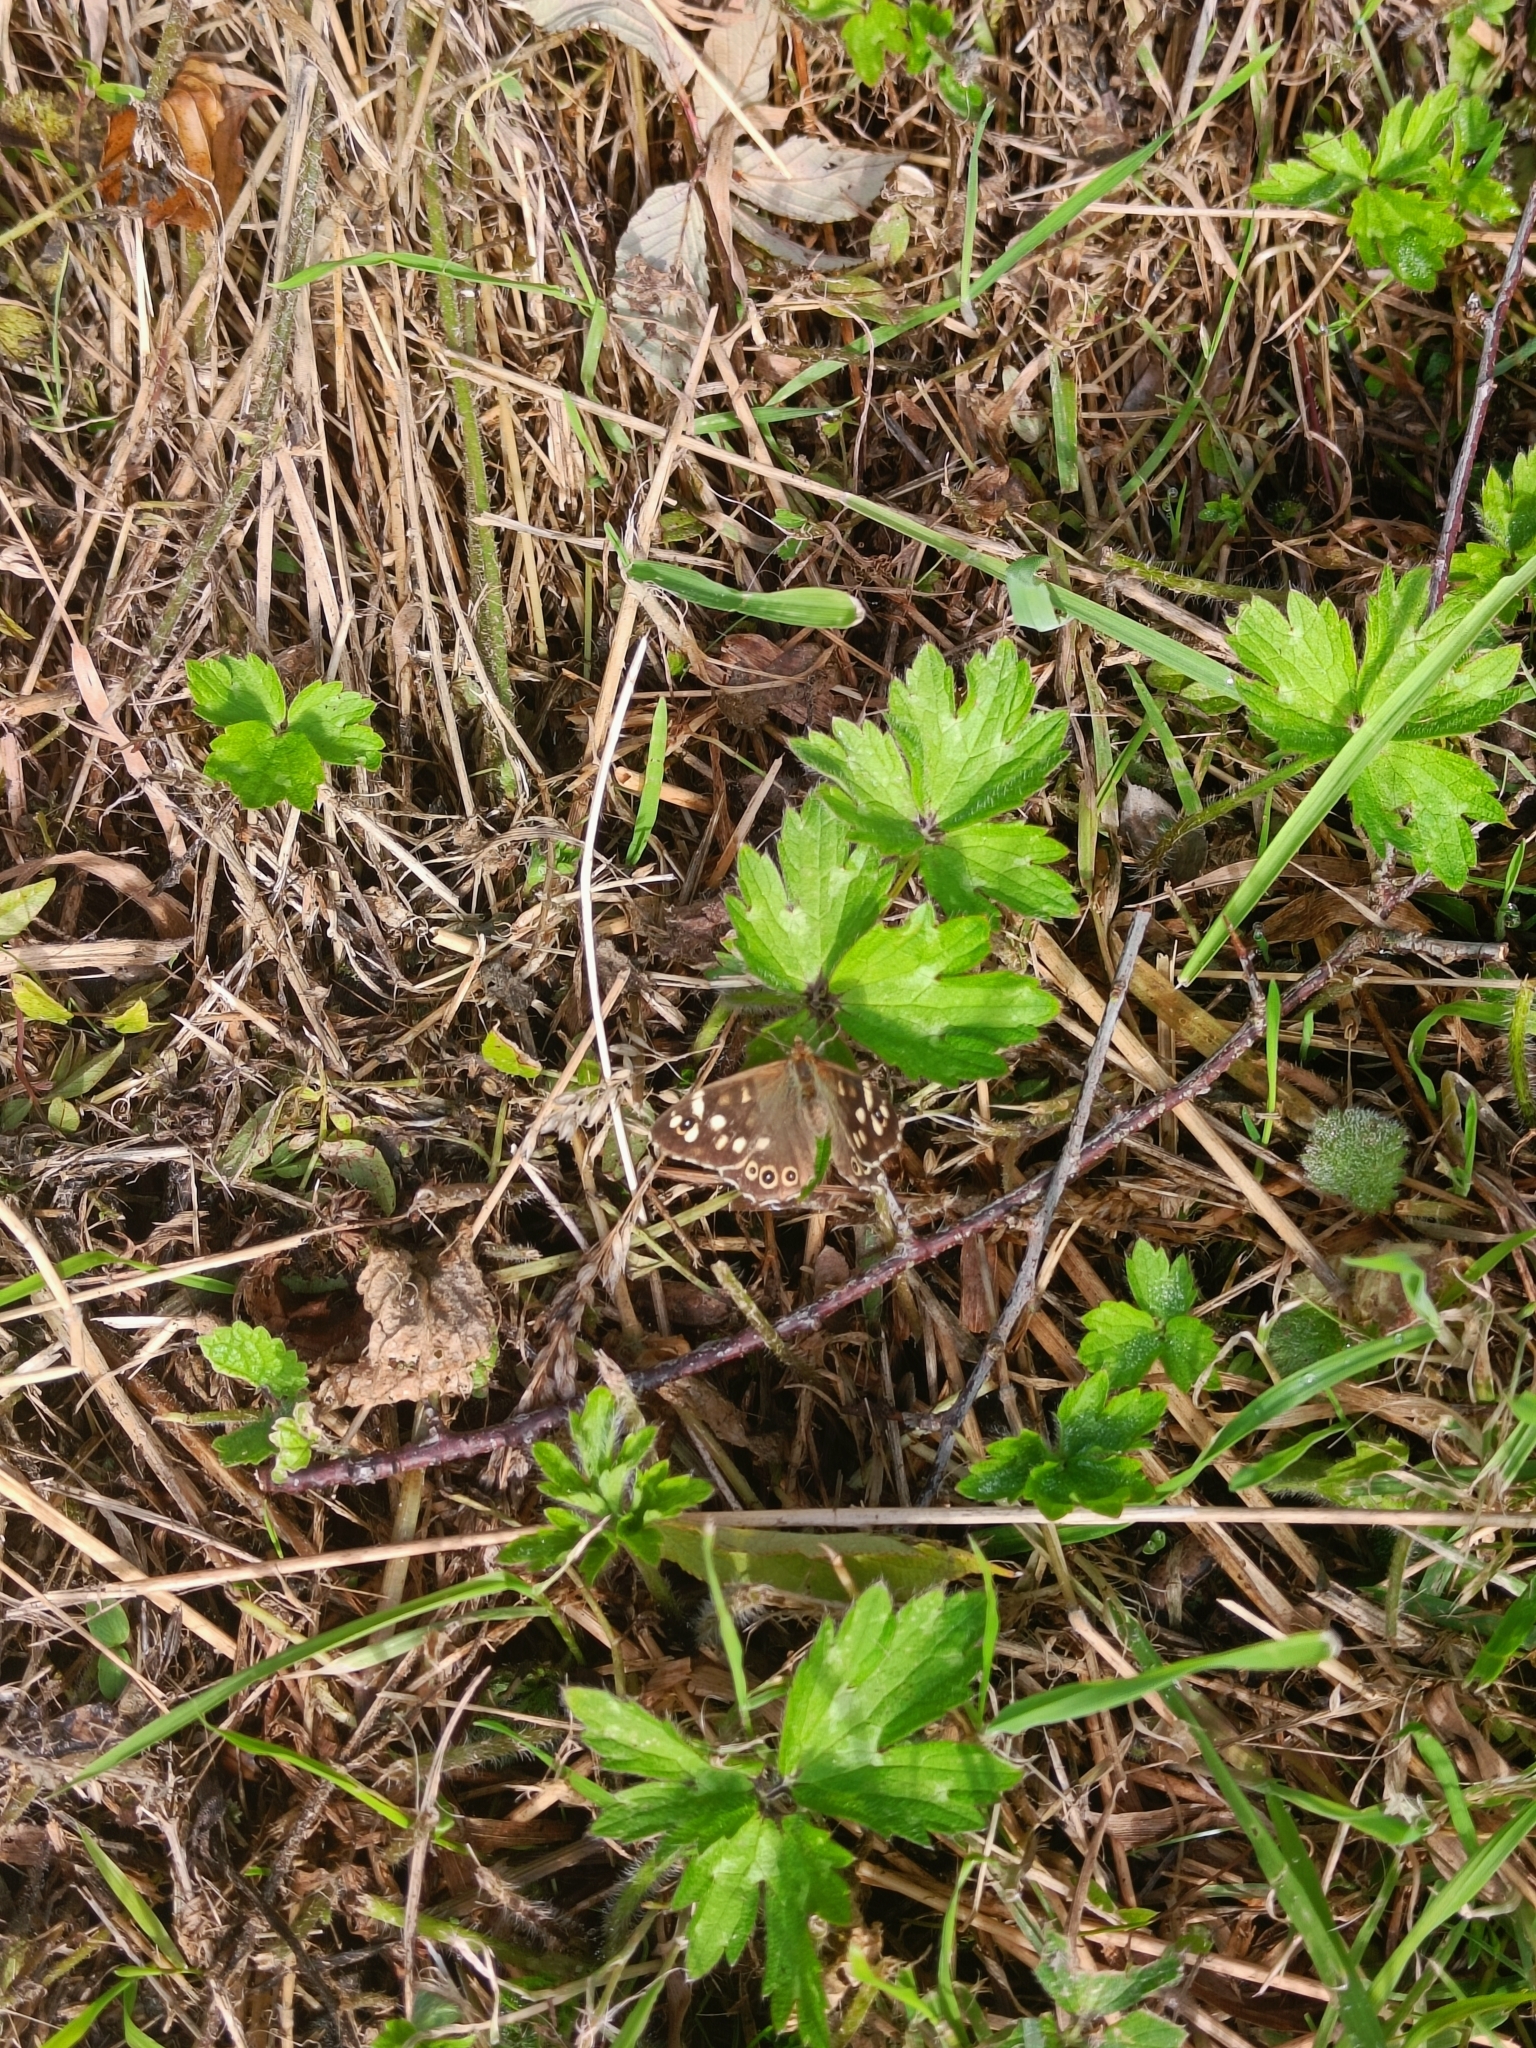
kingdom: Animalia
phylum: Arthropoda
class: Insecta
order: Lepidoptera
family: Nymphalidae
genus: Pararge
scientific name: Pararge aegeria
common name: Speckled wood
